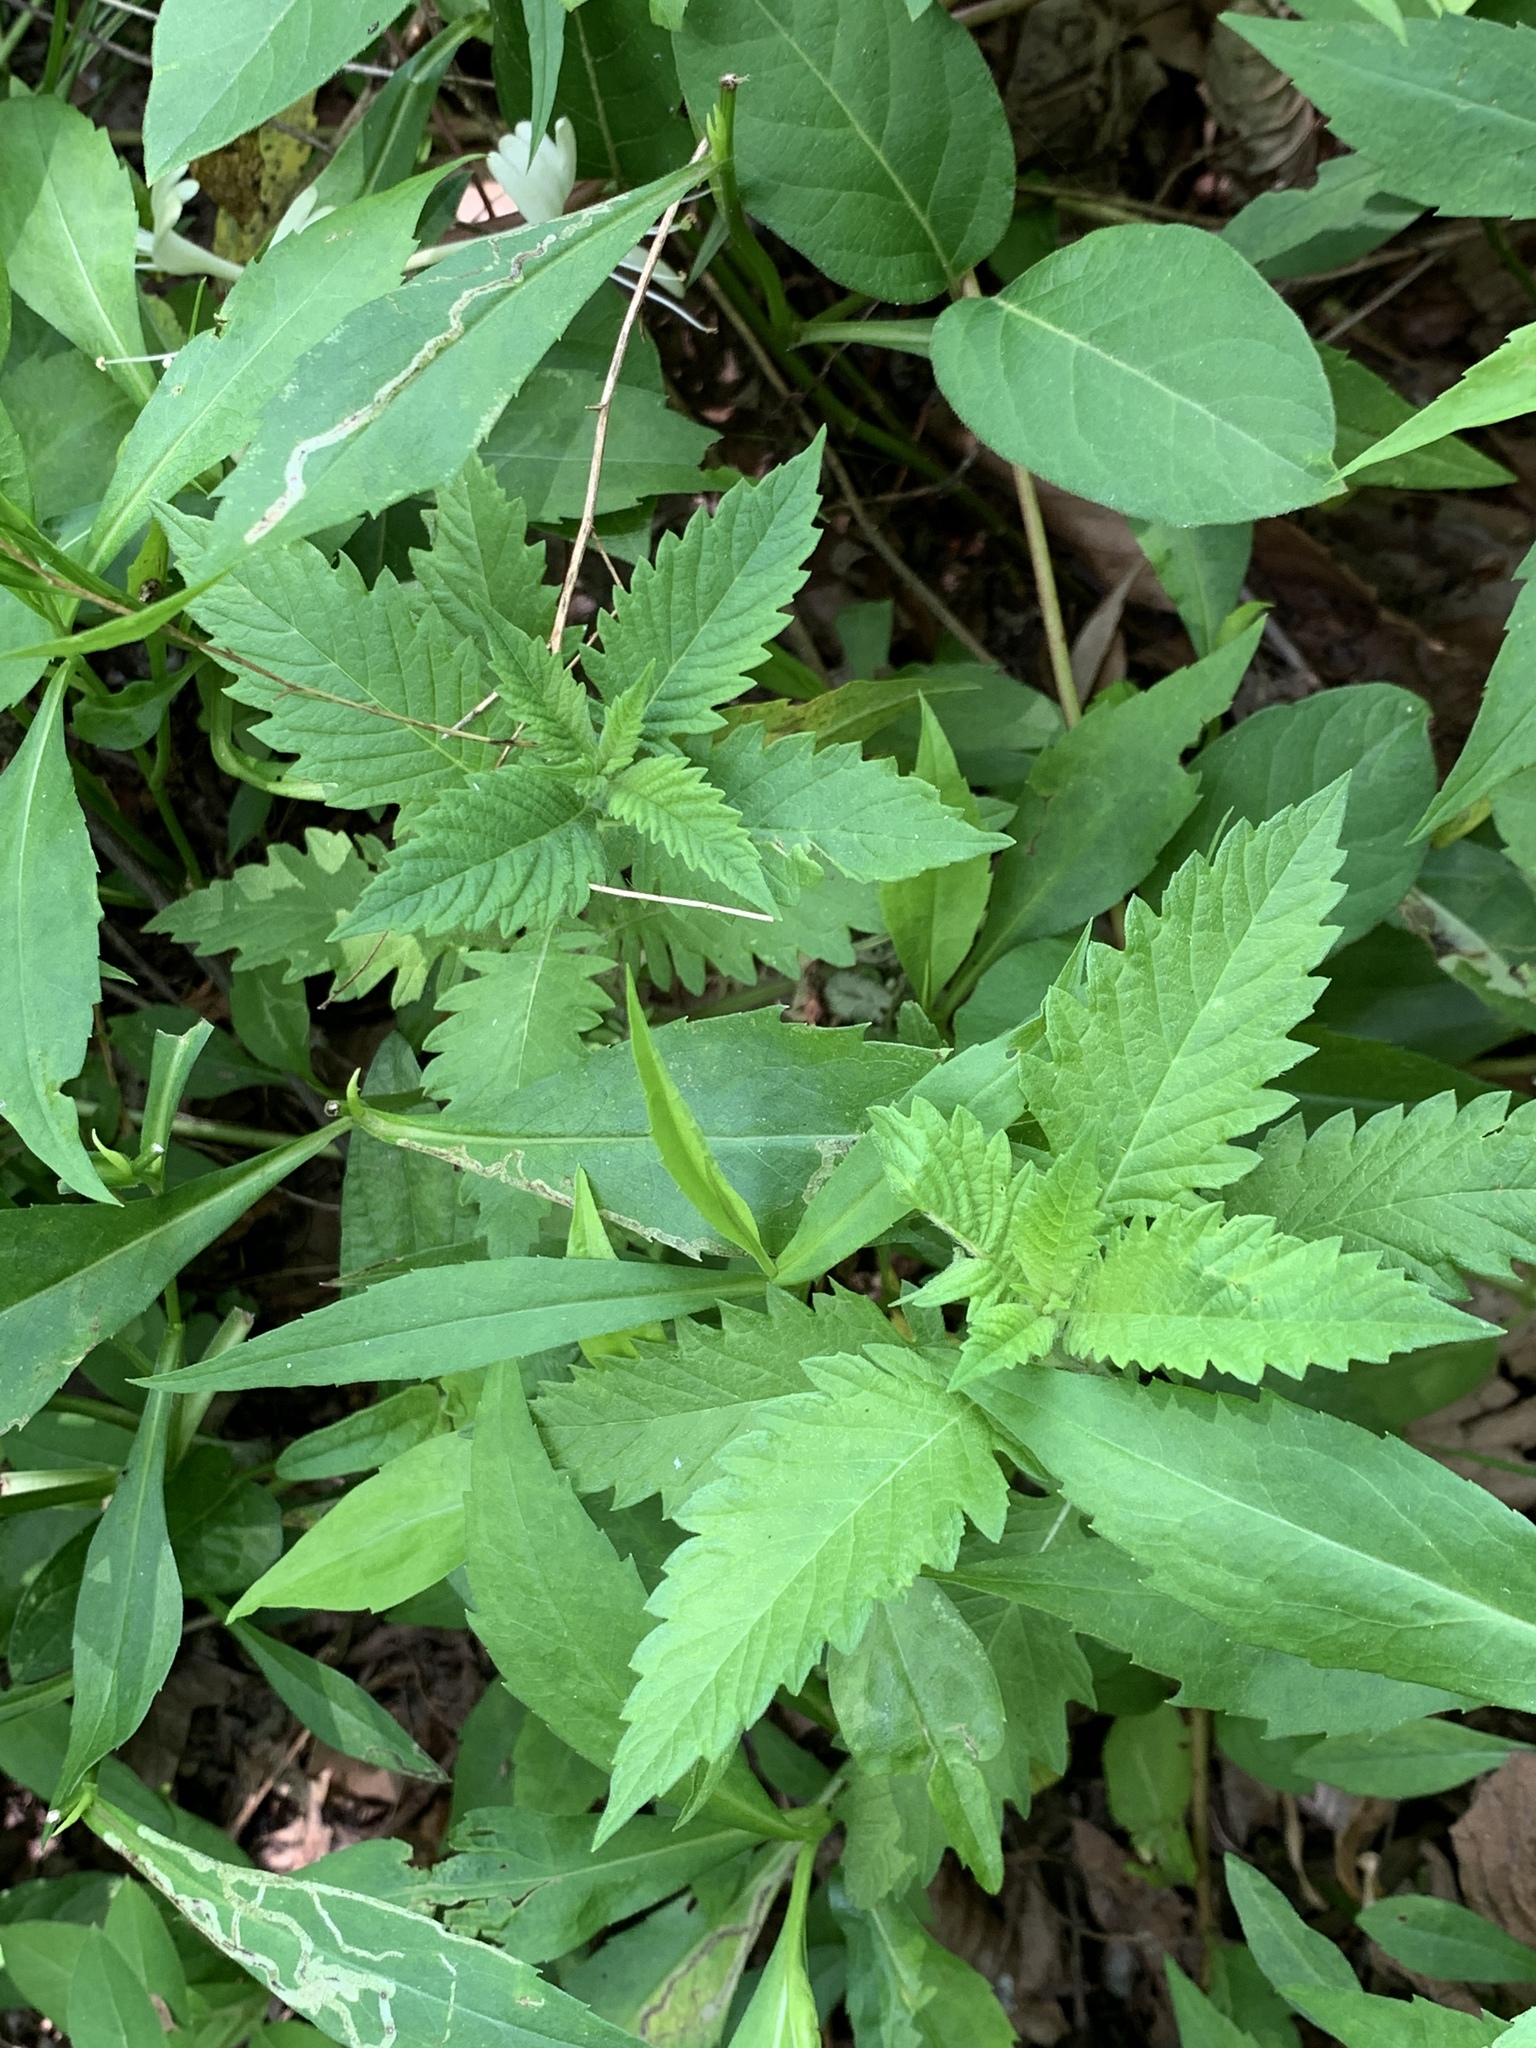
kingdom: Plantae
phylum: Tracheophyta
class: Magnoliopsida
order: Caryophyllales
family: Amaranthaceae
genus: Dysphania
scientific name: Dysphania ambrosioides
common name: Wormseed
